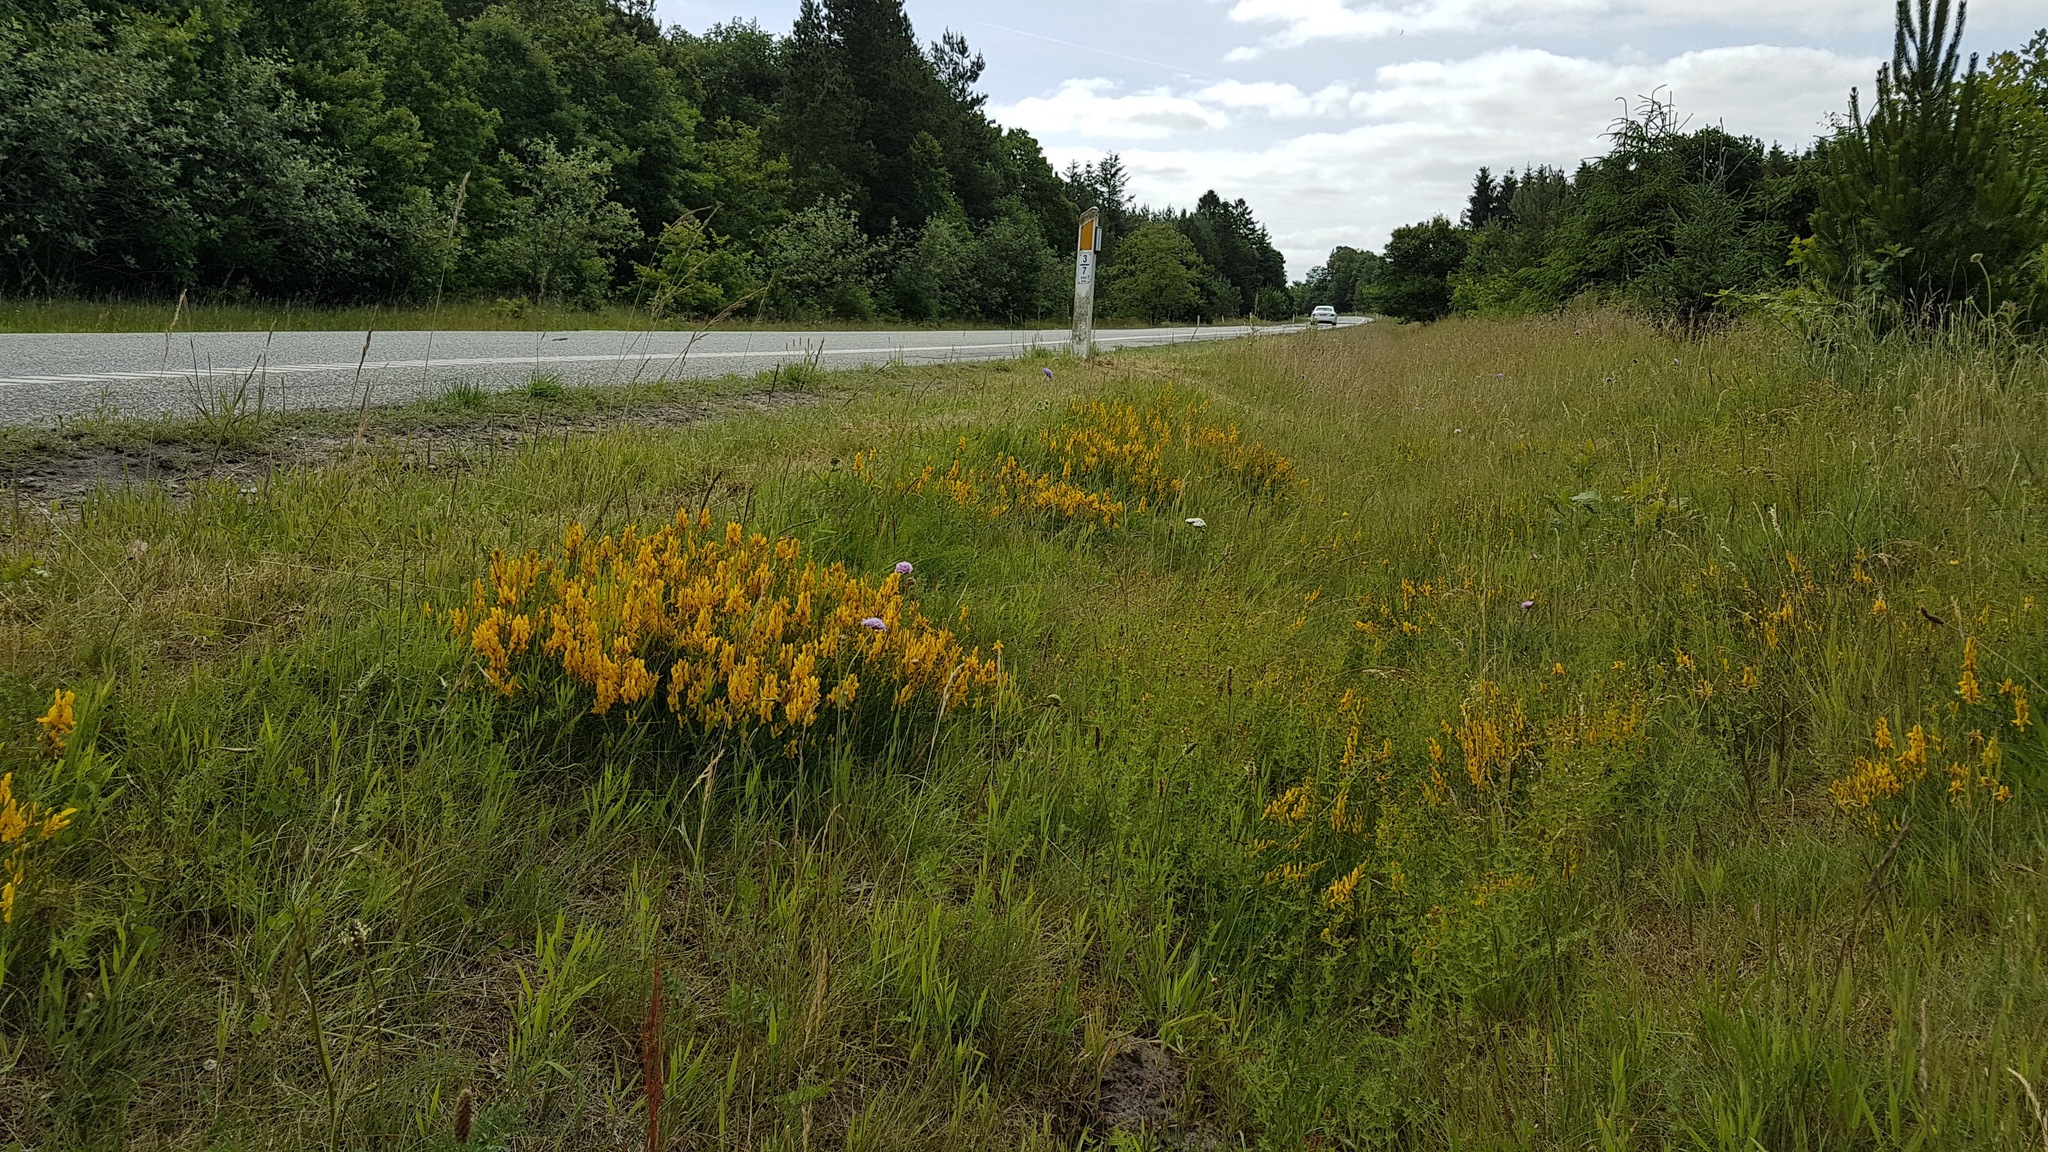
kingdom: Plantae
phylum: Tracheophyta
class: Magnoliopsida
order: Fabales
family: Fabaceae
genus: Genista
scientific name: Genista tinctoria
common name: Dyer's greenweed
